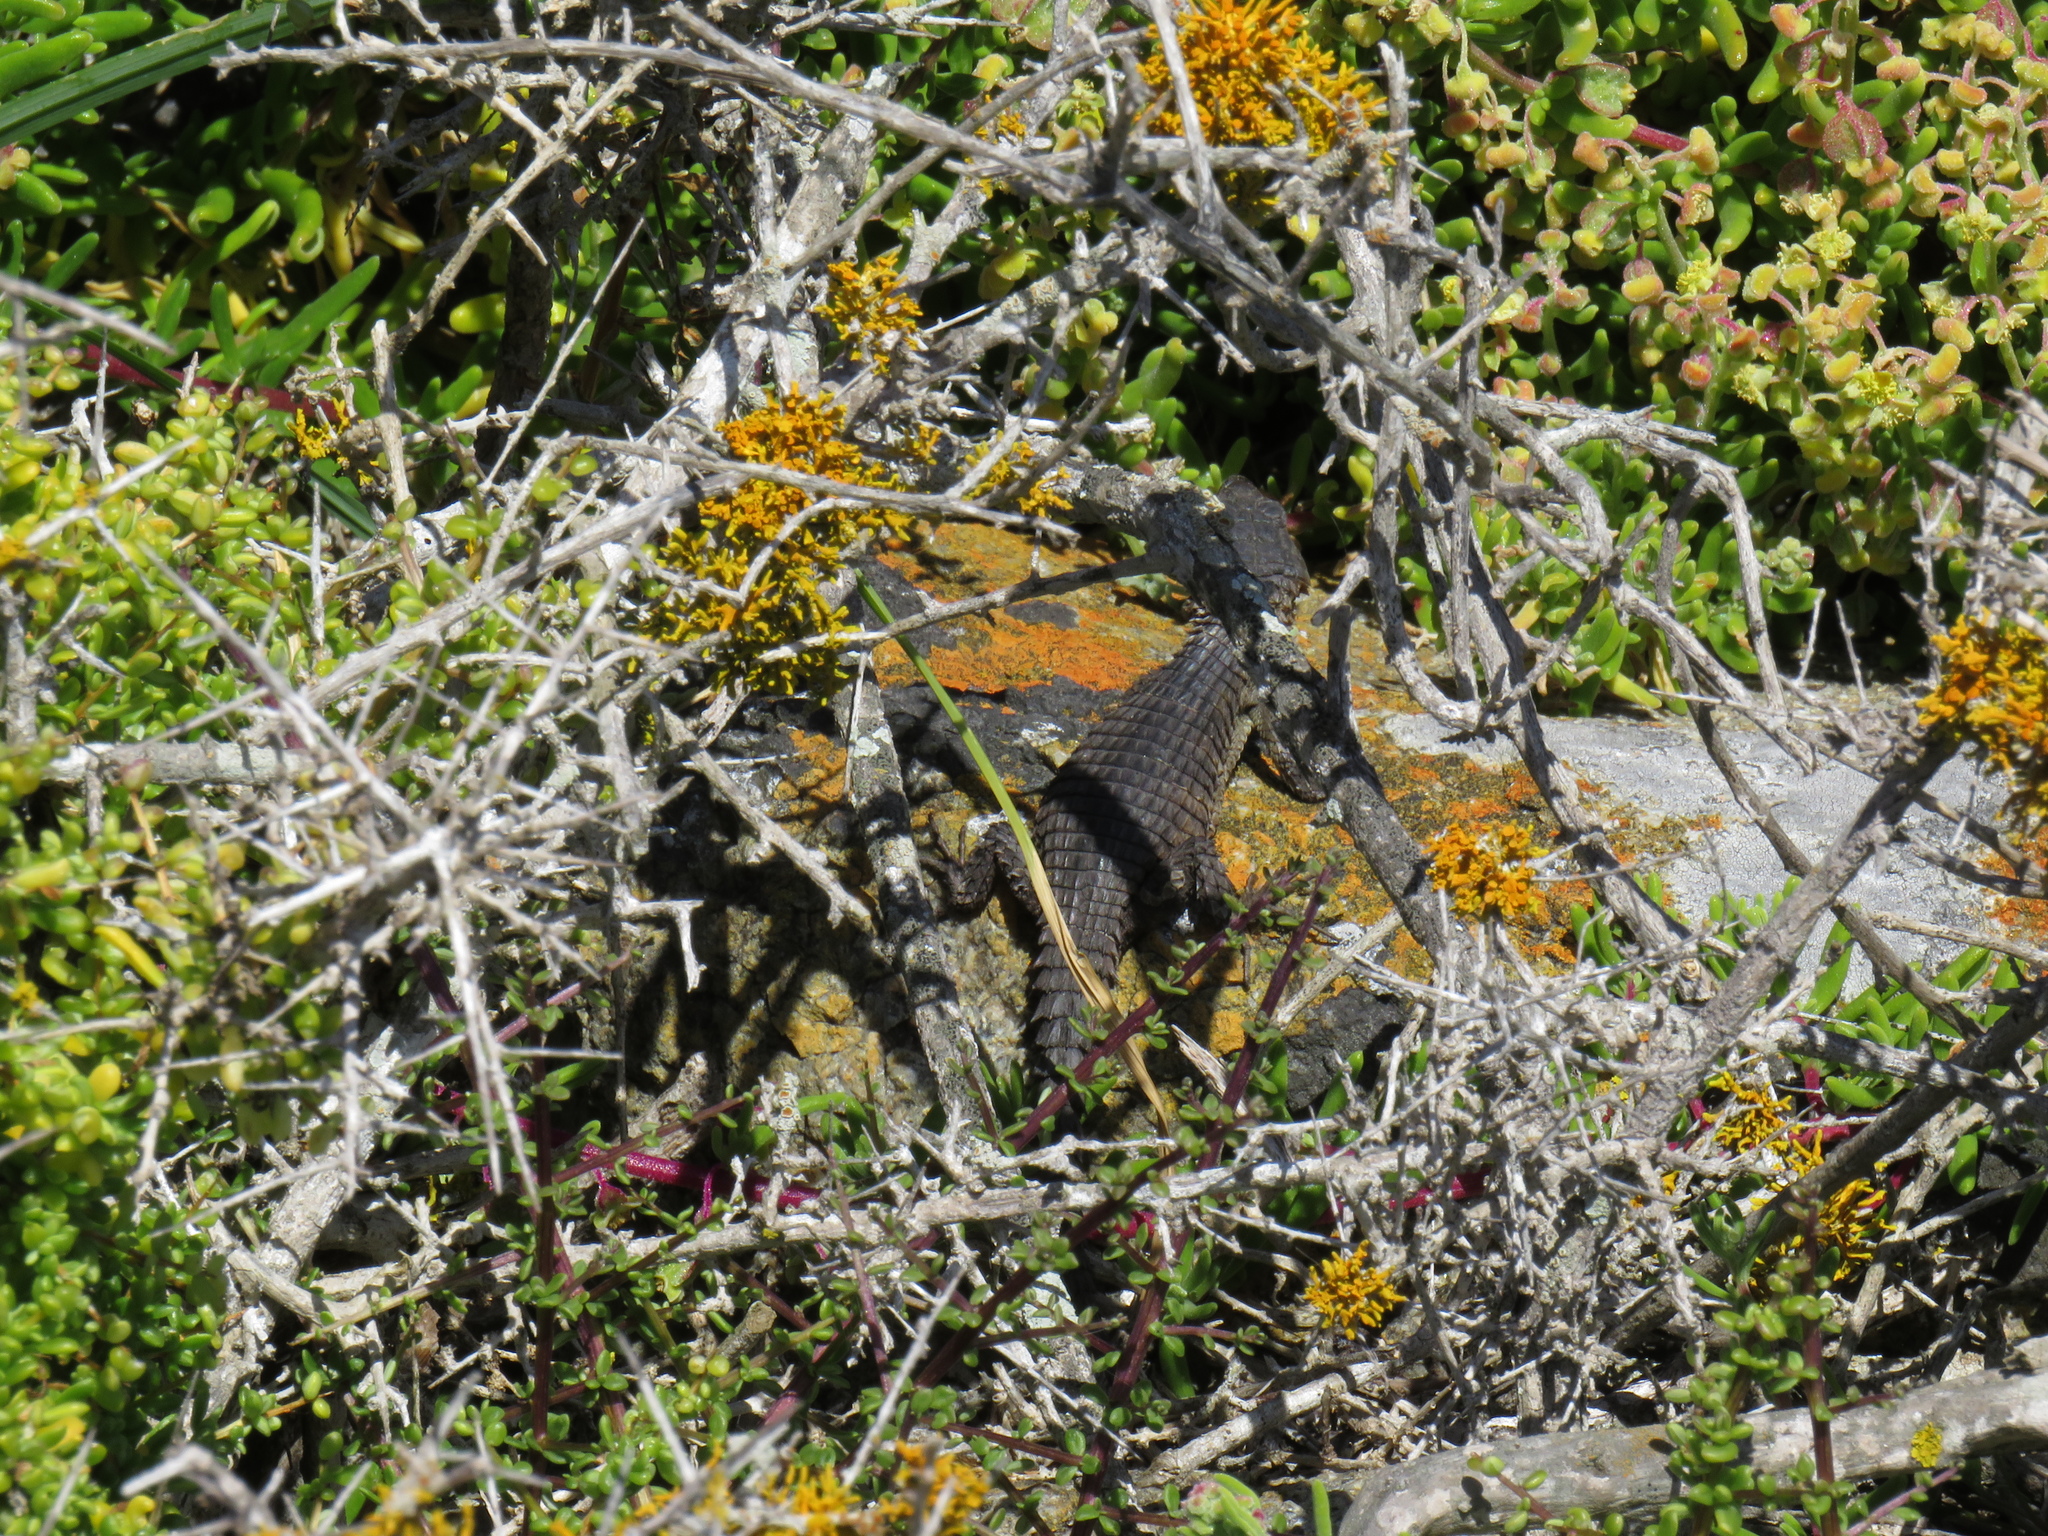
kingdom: Animalia
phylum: Chordata
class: Squamata
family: Cordylidae
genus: Cordylus
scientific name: Cordylus niger
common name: Black girdled lizard
